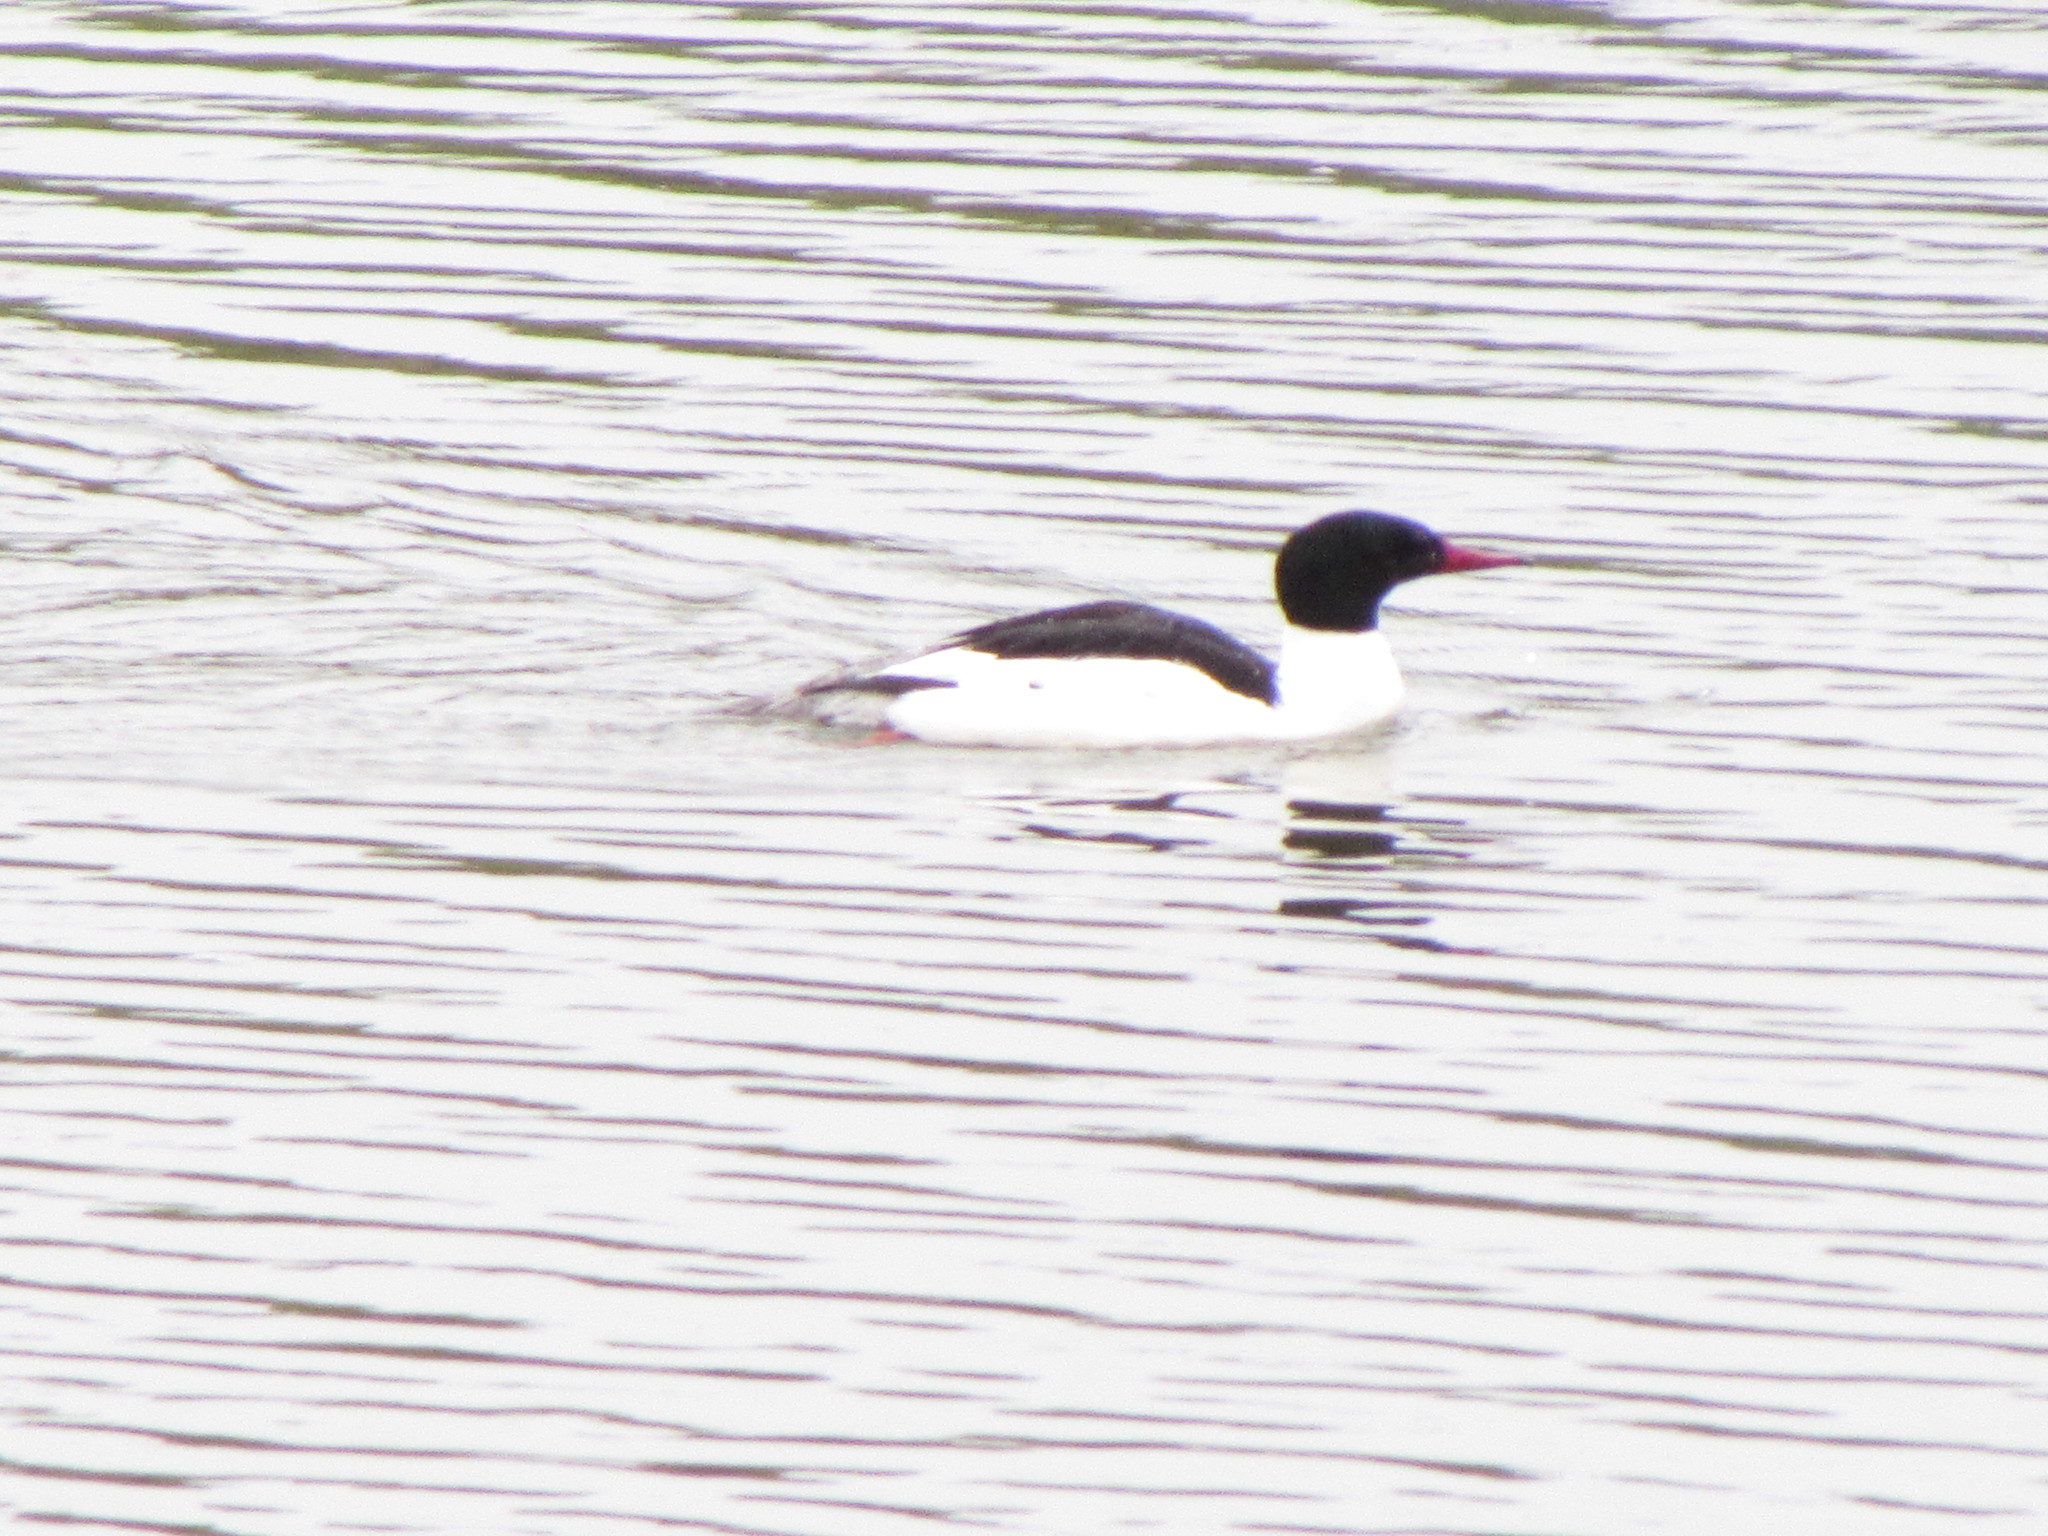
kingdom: Animalia
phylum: Chordata
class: Aves
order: Anseriformes
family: Anatidae
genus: Mergus
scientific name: Mergus merganser
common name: Common merganser
